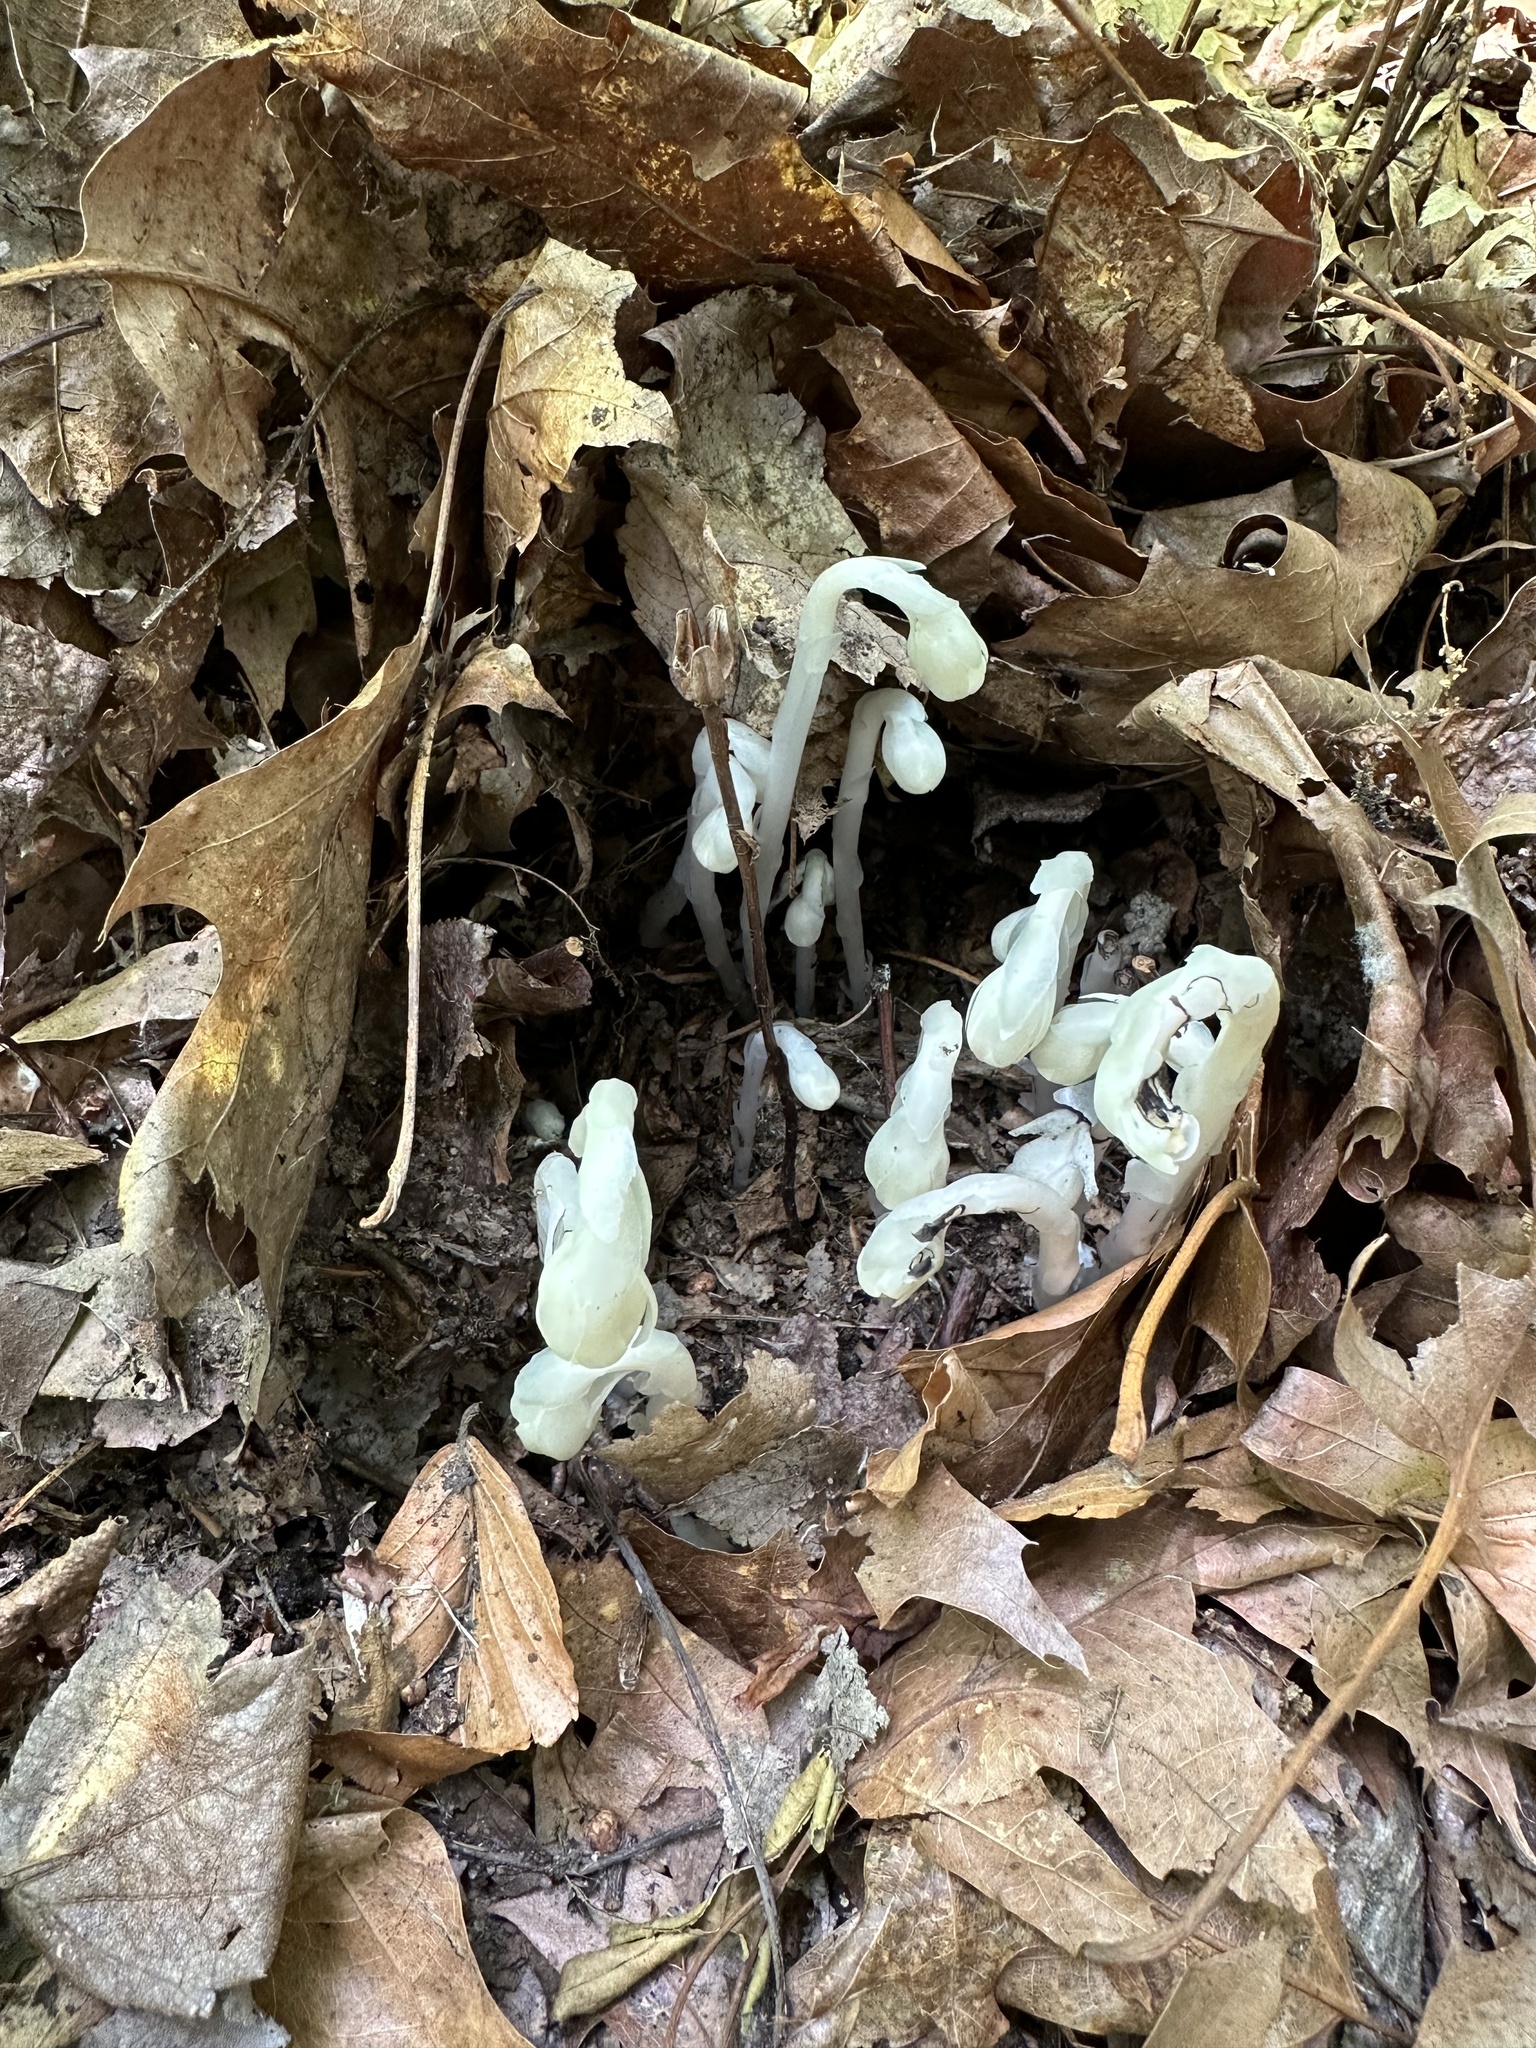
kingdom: Plantae
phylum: Tracheophyta
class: Magnoliopsida
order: Ericales
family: Ericaceae
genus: Monotropa
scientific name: Monotropa uniflora
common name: Convulsion root
